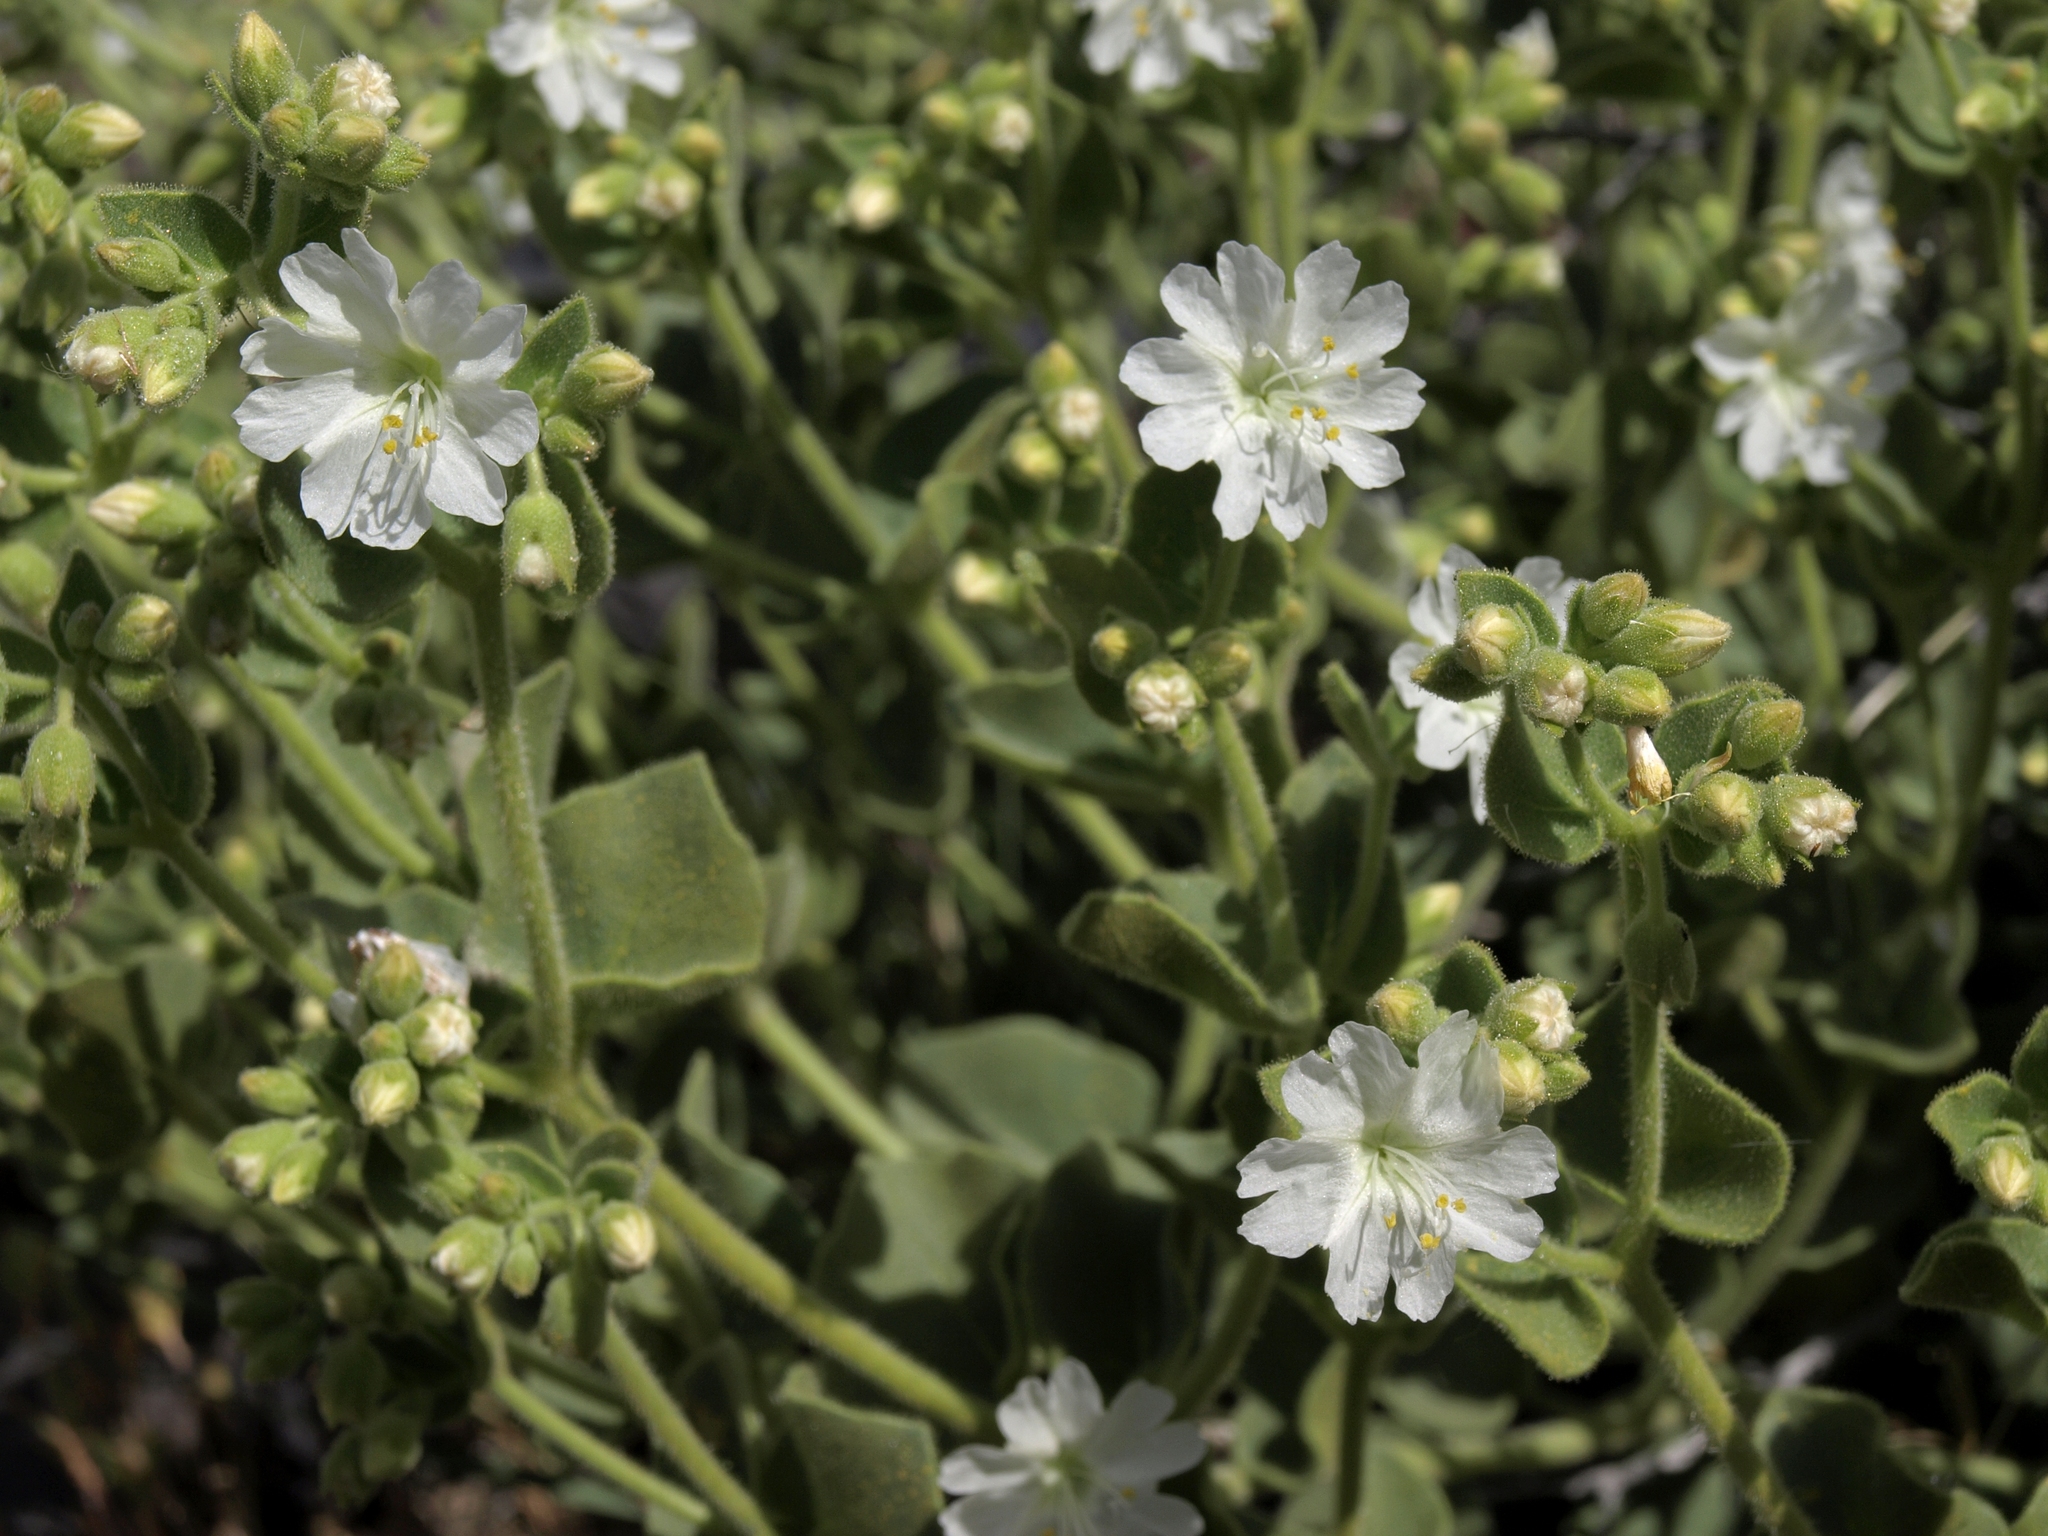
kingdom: Plantae
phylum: Tracheophyta
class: Magnoliopsida
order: Caryophyllales
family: Nyctaginaceae
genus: Mirabilis
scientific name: Mirabilis laevis
